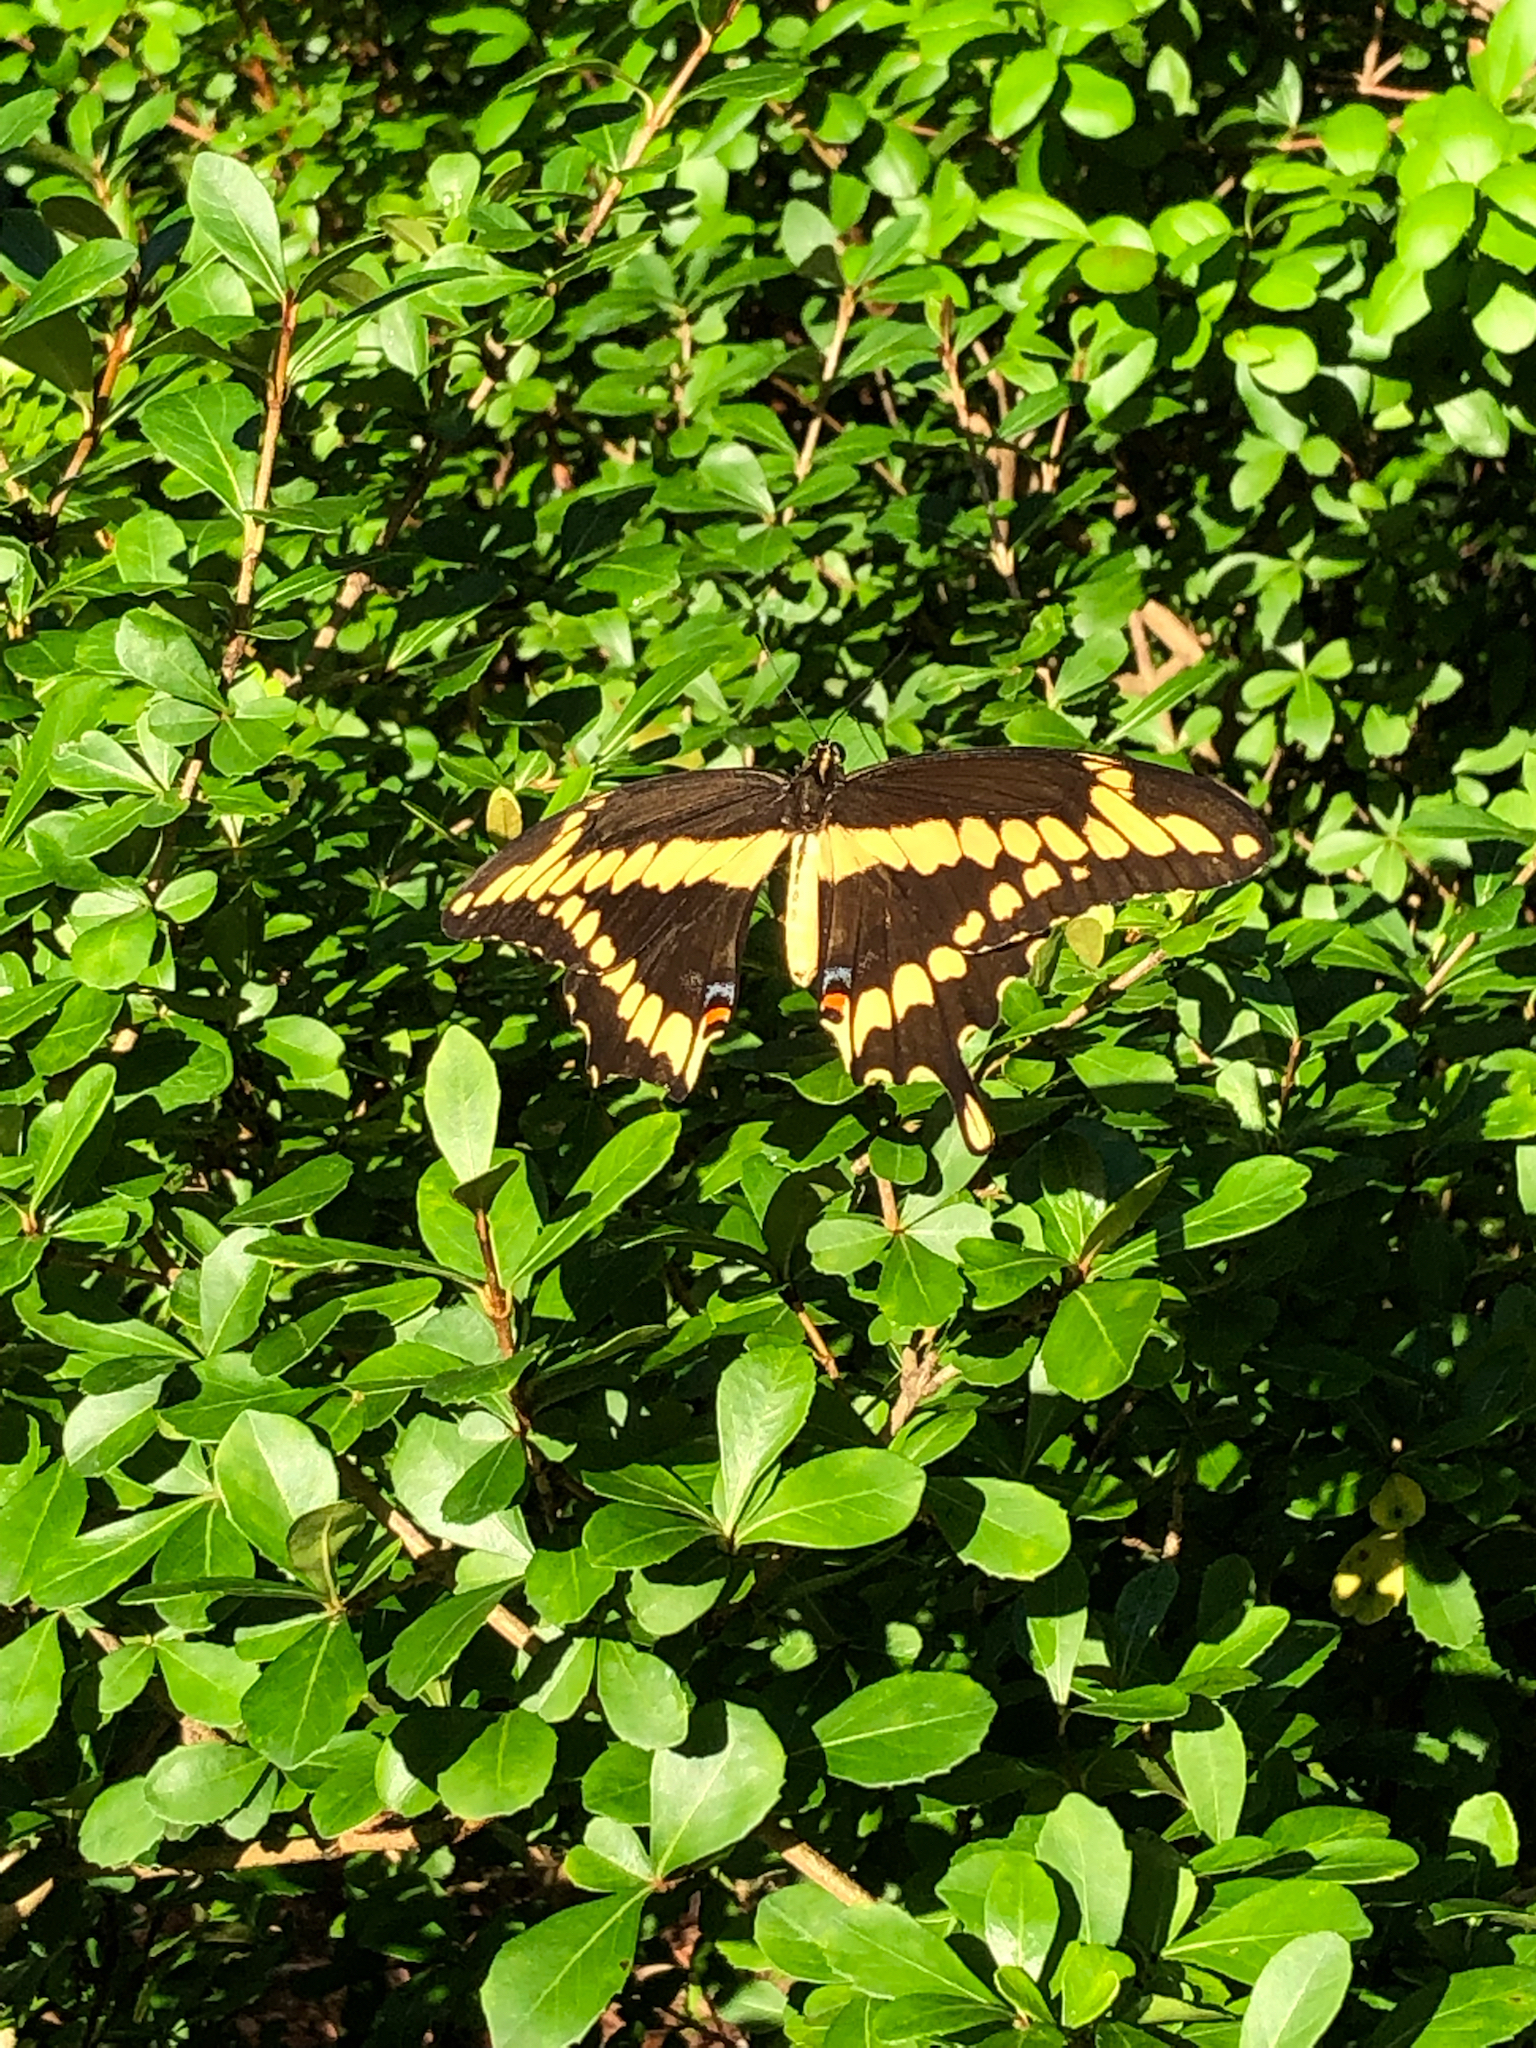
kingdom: Animalia
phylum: Arthropoda
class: Insecta
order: Lepidoptera
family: Papilionidae
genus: Papilio
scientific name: Papilio cresphontes
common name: Giant swallowtail
